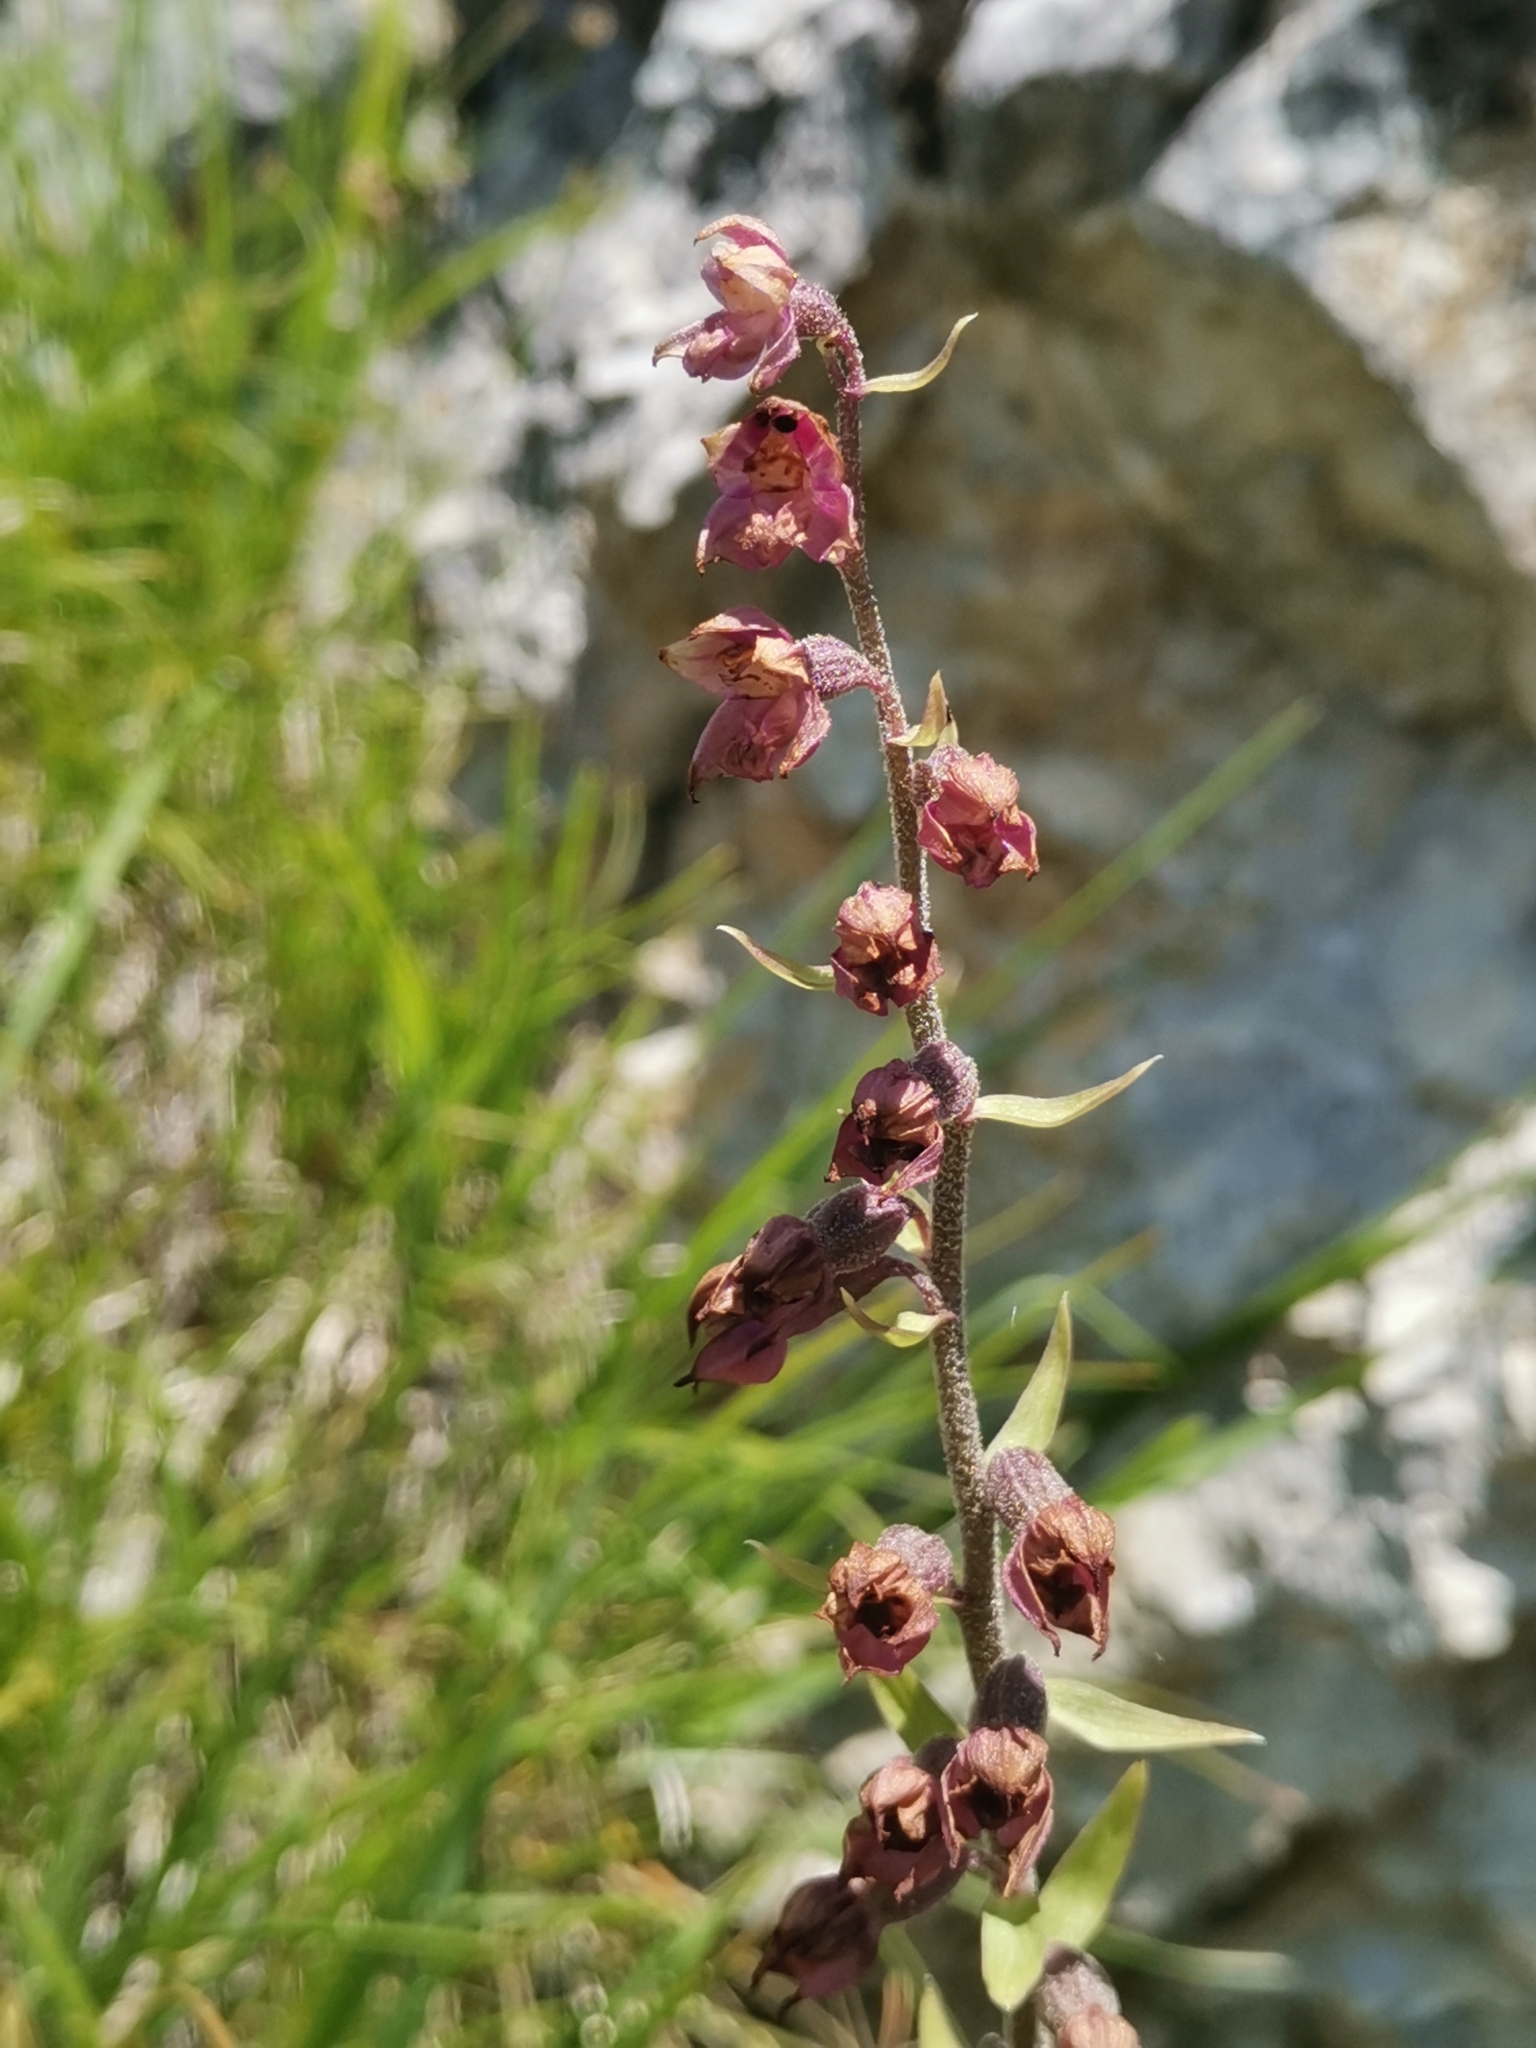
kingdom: Plantae
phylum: Tracheophyta
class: Liliopsida
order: Asparagales
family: Orchidaceae
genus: Epipactis
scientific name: Epipactis atrorubens
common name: Dark-red helleborine
